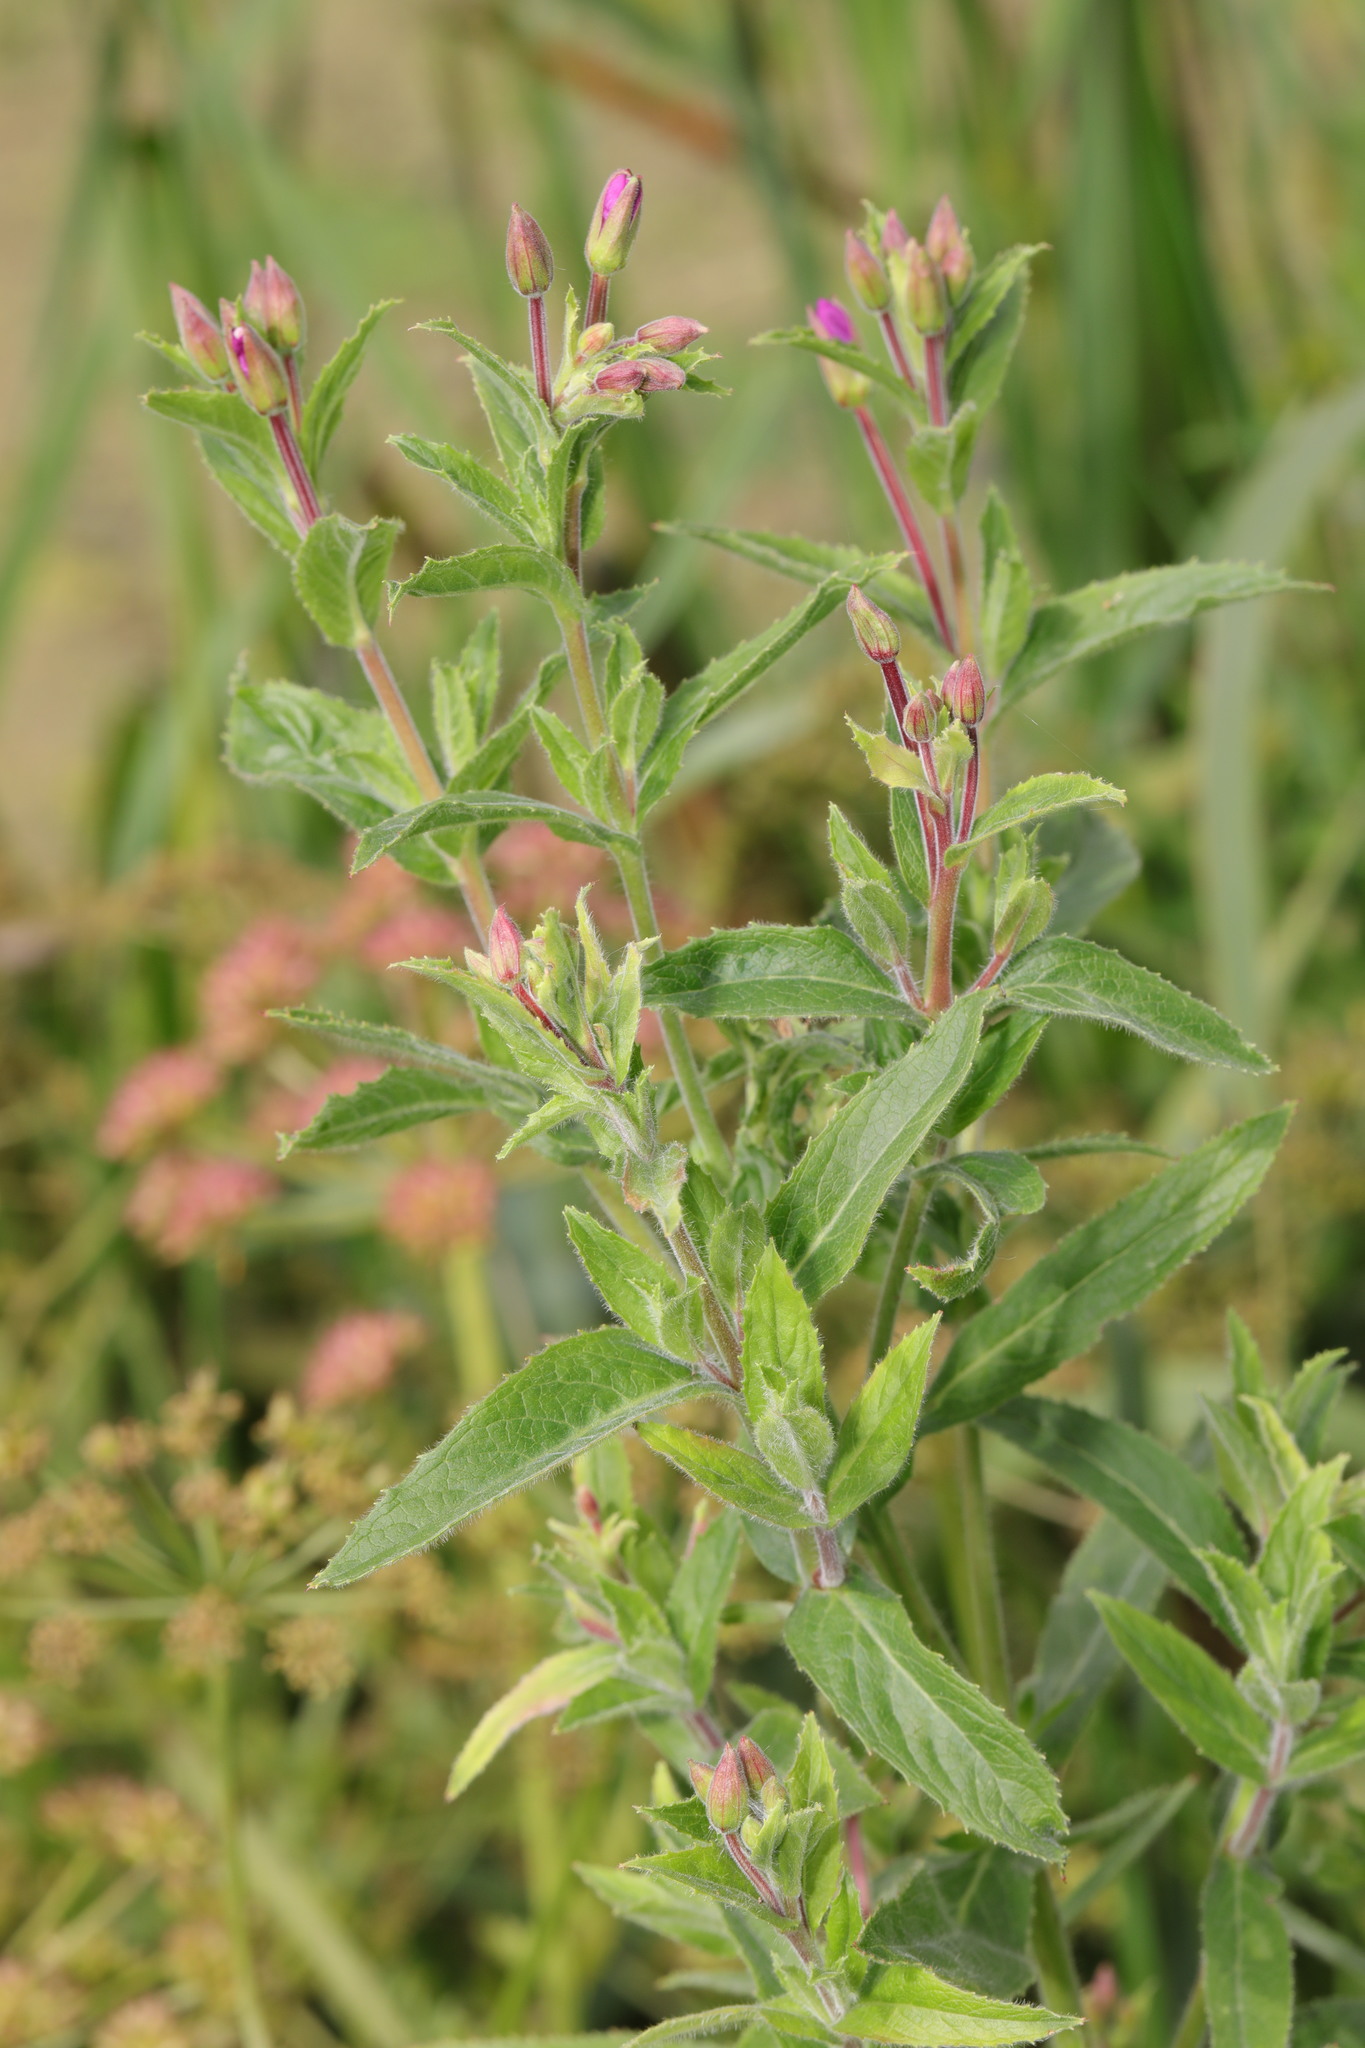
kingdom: Plantae
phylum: Tracheophyta
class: Magnoliopsida
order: Myrtales
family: Onagraceae
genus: Epilobium
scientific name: Epilobium hirsutum
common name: Great willowherb
